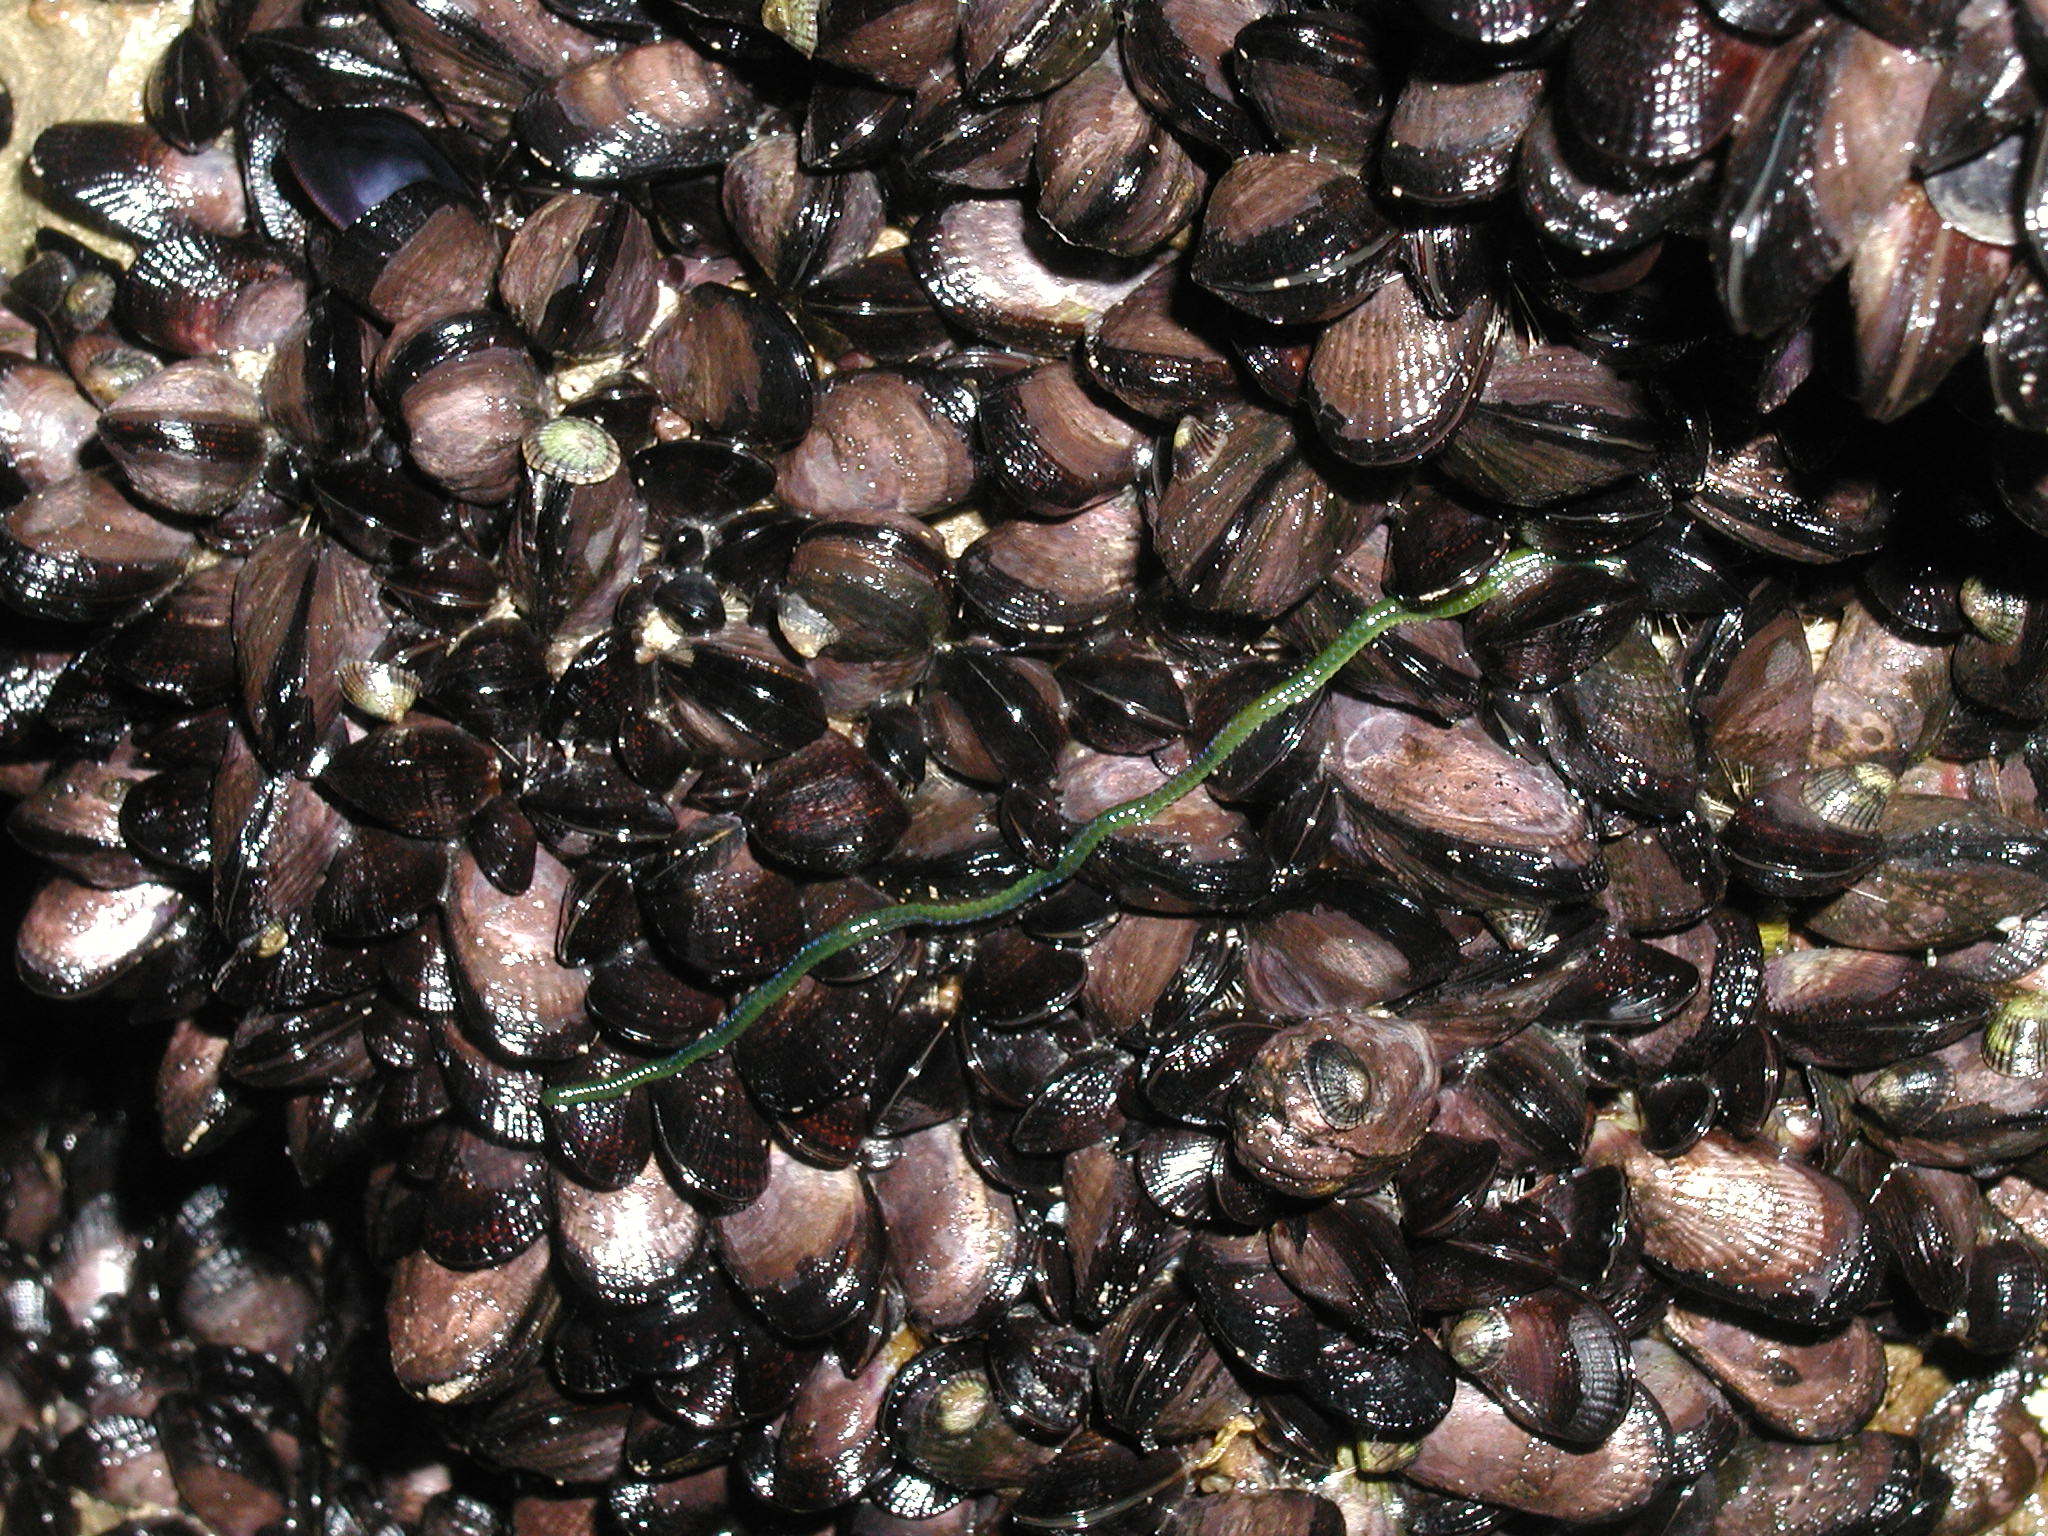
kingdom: Animalia
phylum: Annelida
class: Polychaeta
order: Phyllodocida
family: Phyllodocidae
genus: Eulalia
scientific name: Eulalia clavigera
